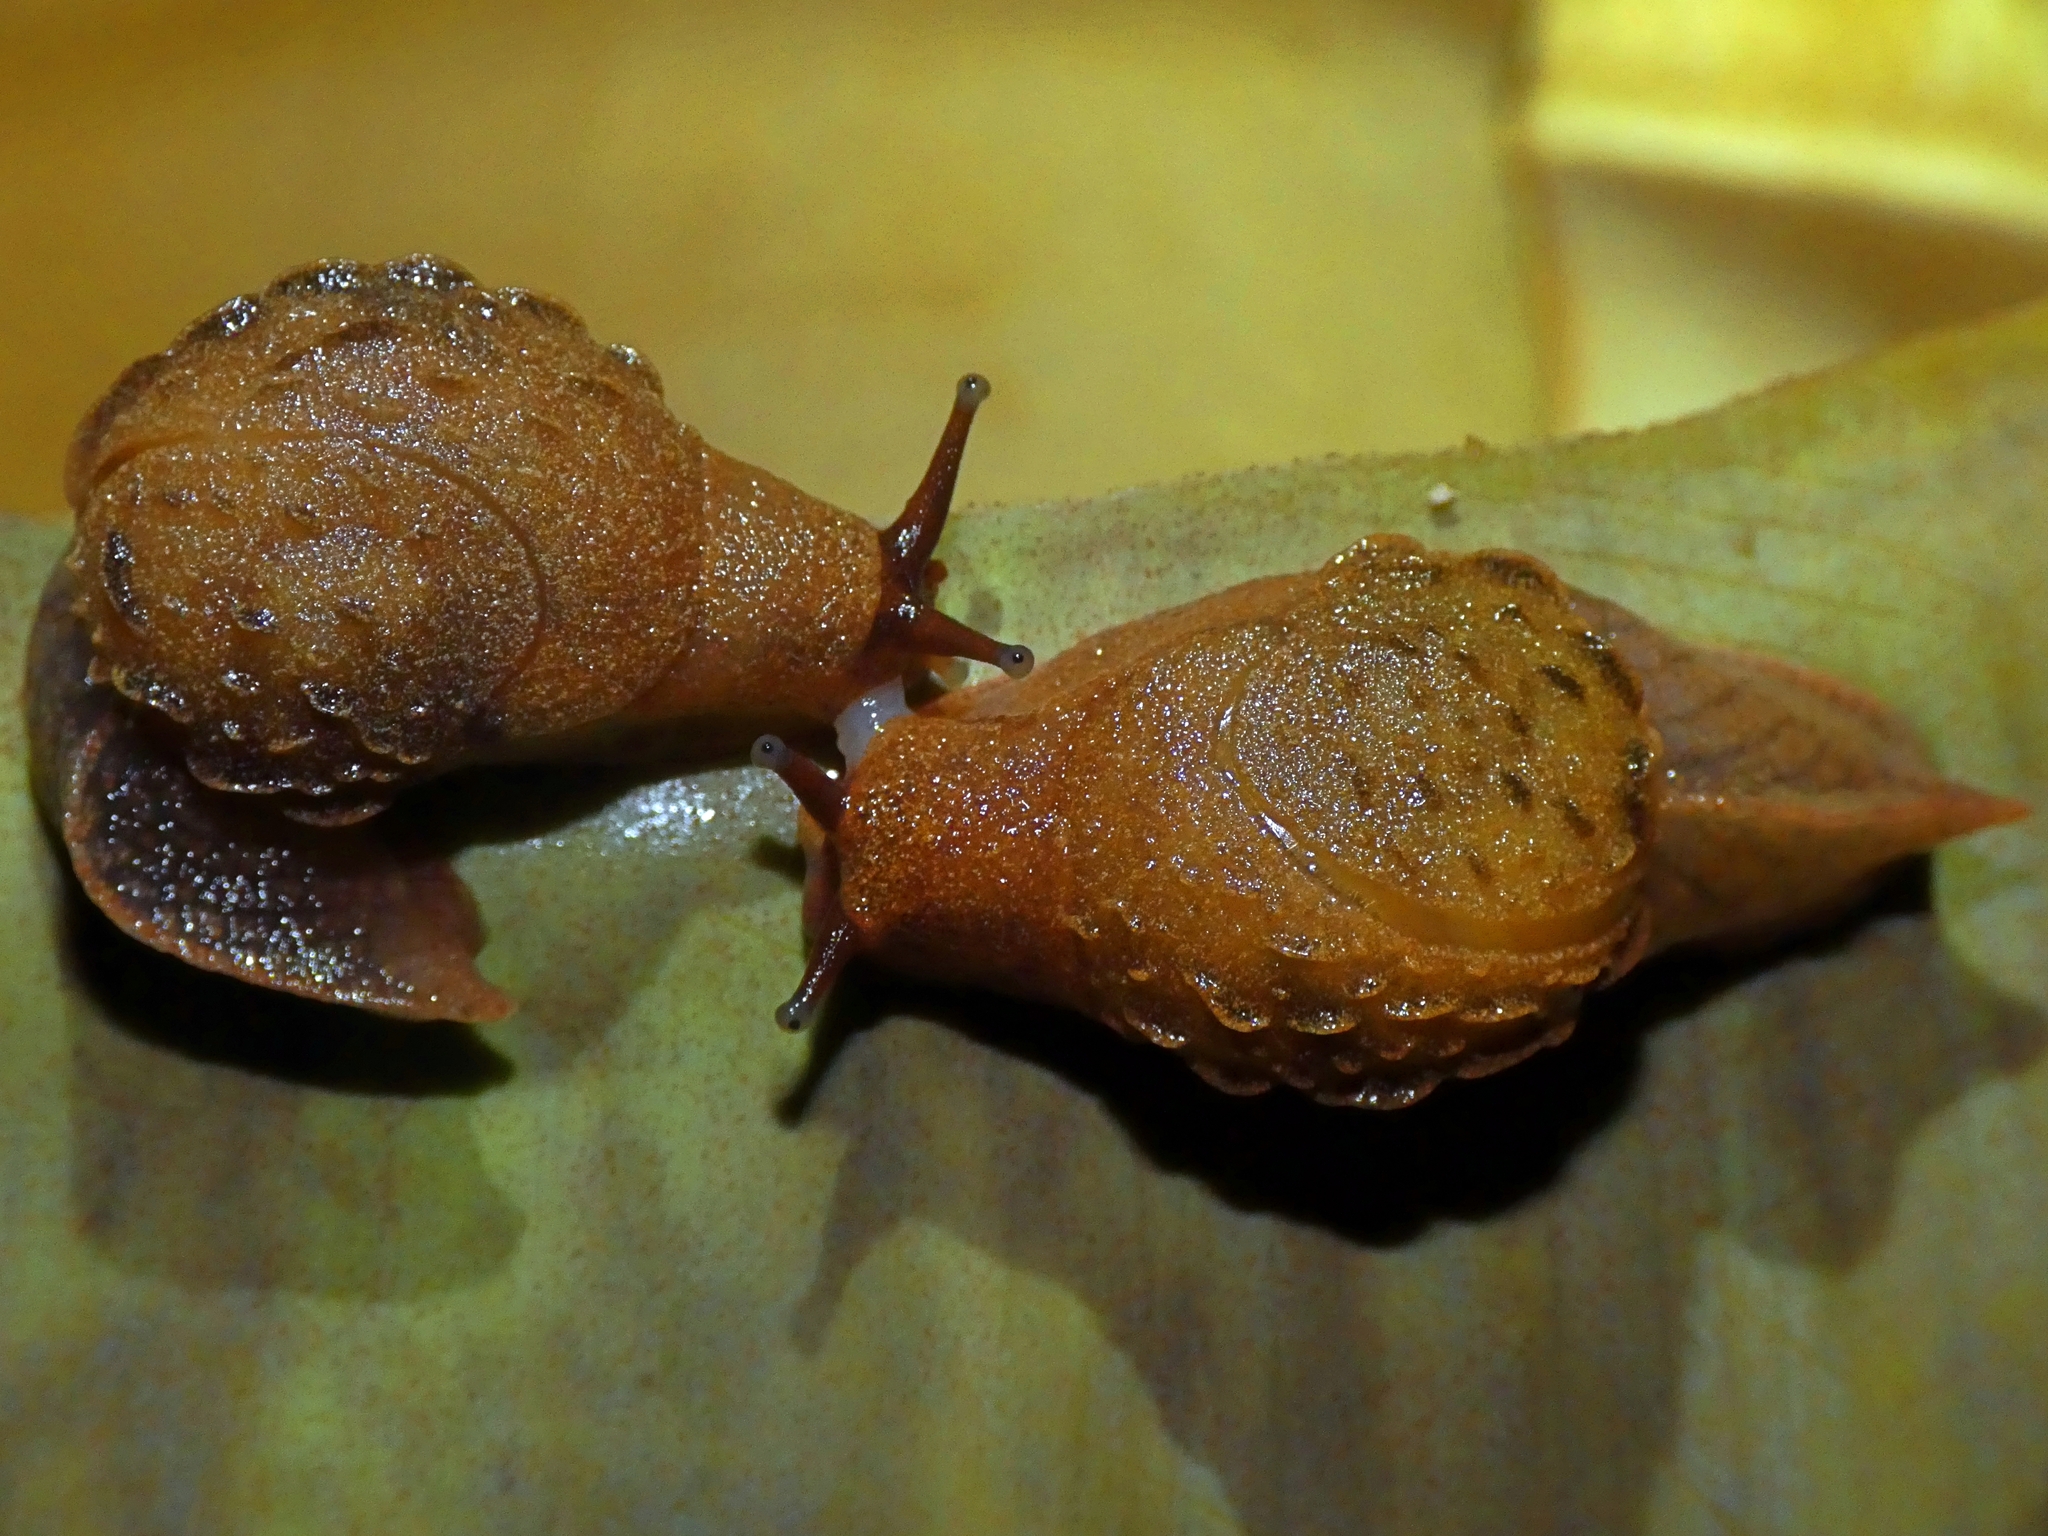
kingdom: Animalia
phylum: Mollusca
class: Gastropoda
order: Stylommatophora
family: Helicarionidae
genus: Fastosarion
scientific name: Fastosarion brazieri
